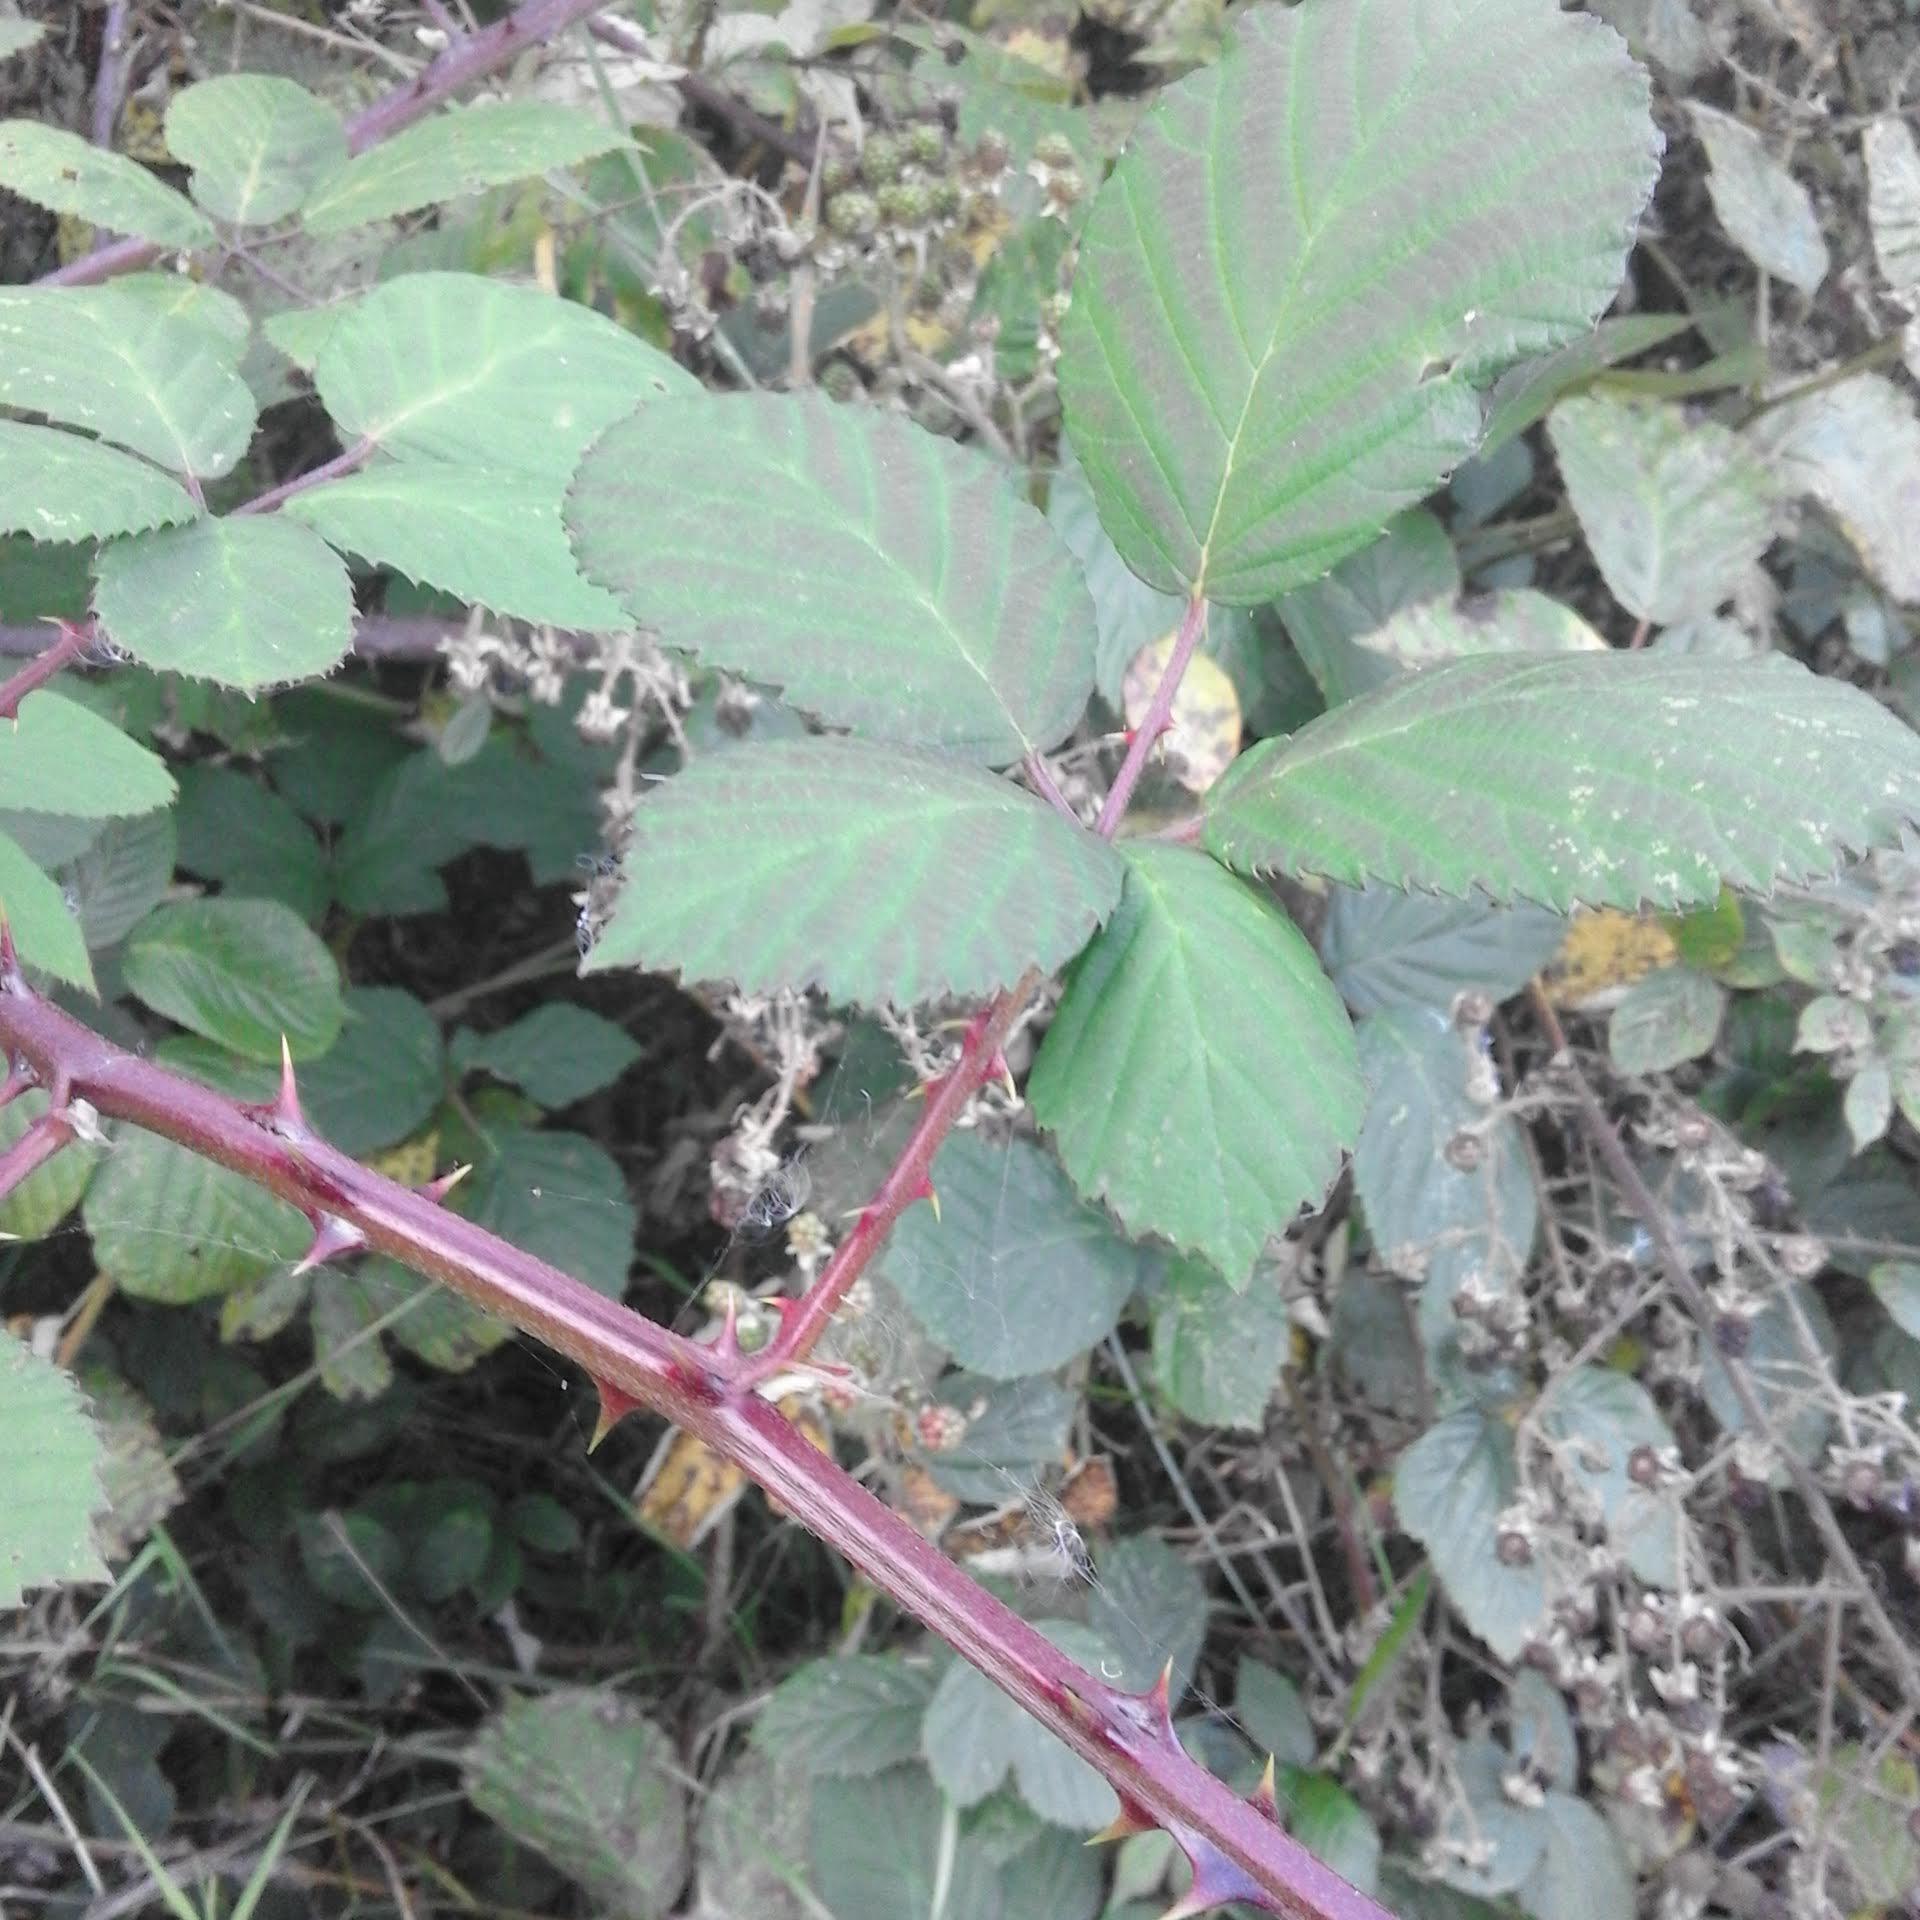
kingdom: Plantae
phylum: Tracheophyta
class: Magnoliopsida
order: Rosales
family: Rosaceae
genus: Rubus
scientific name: Rubus armeniacus
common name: Himalayan blackberry
